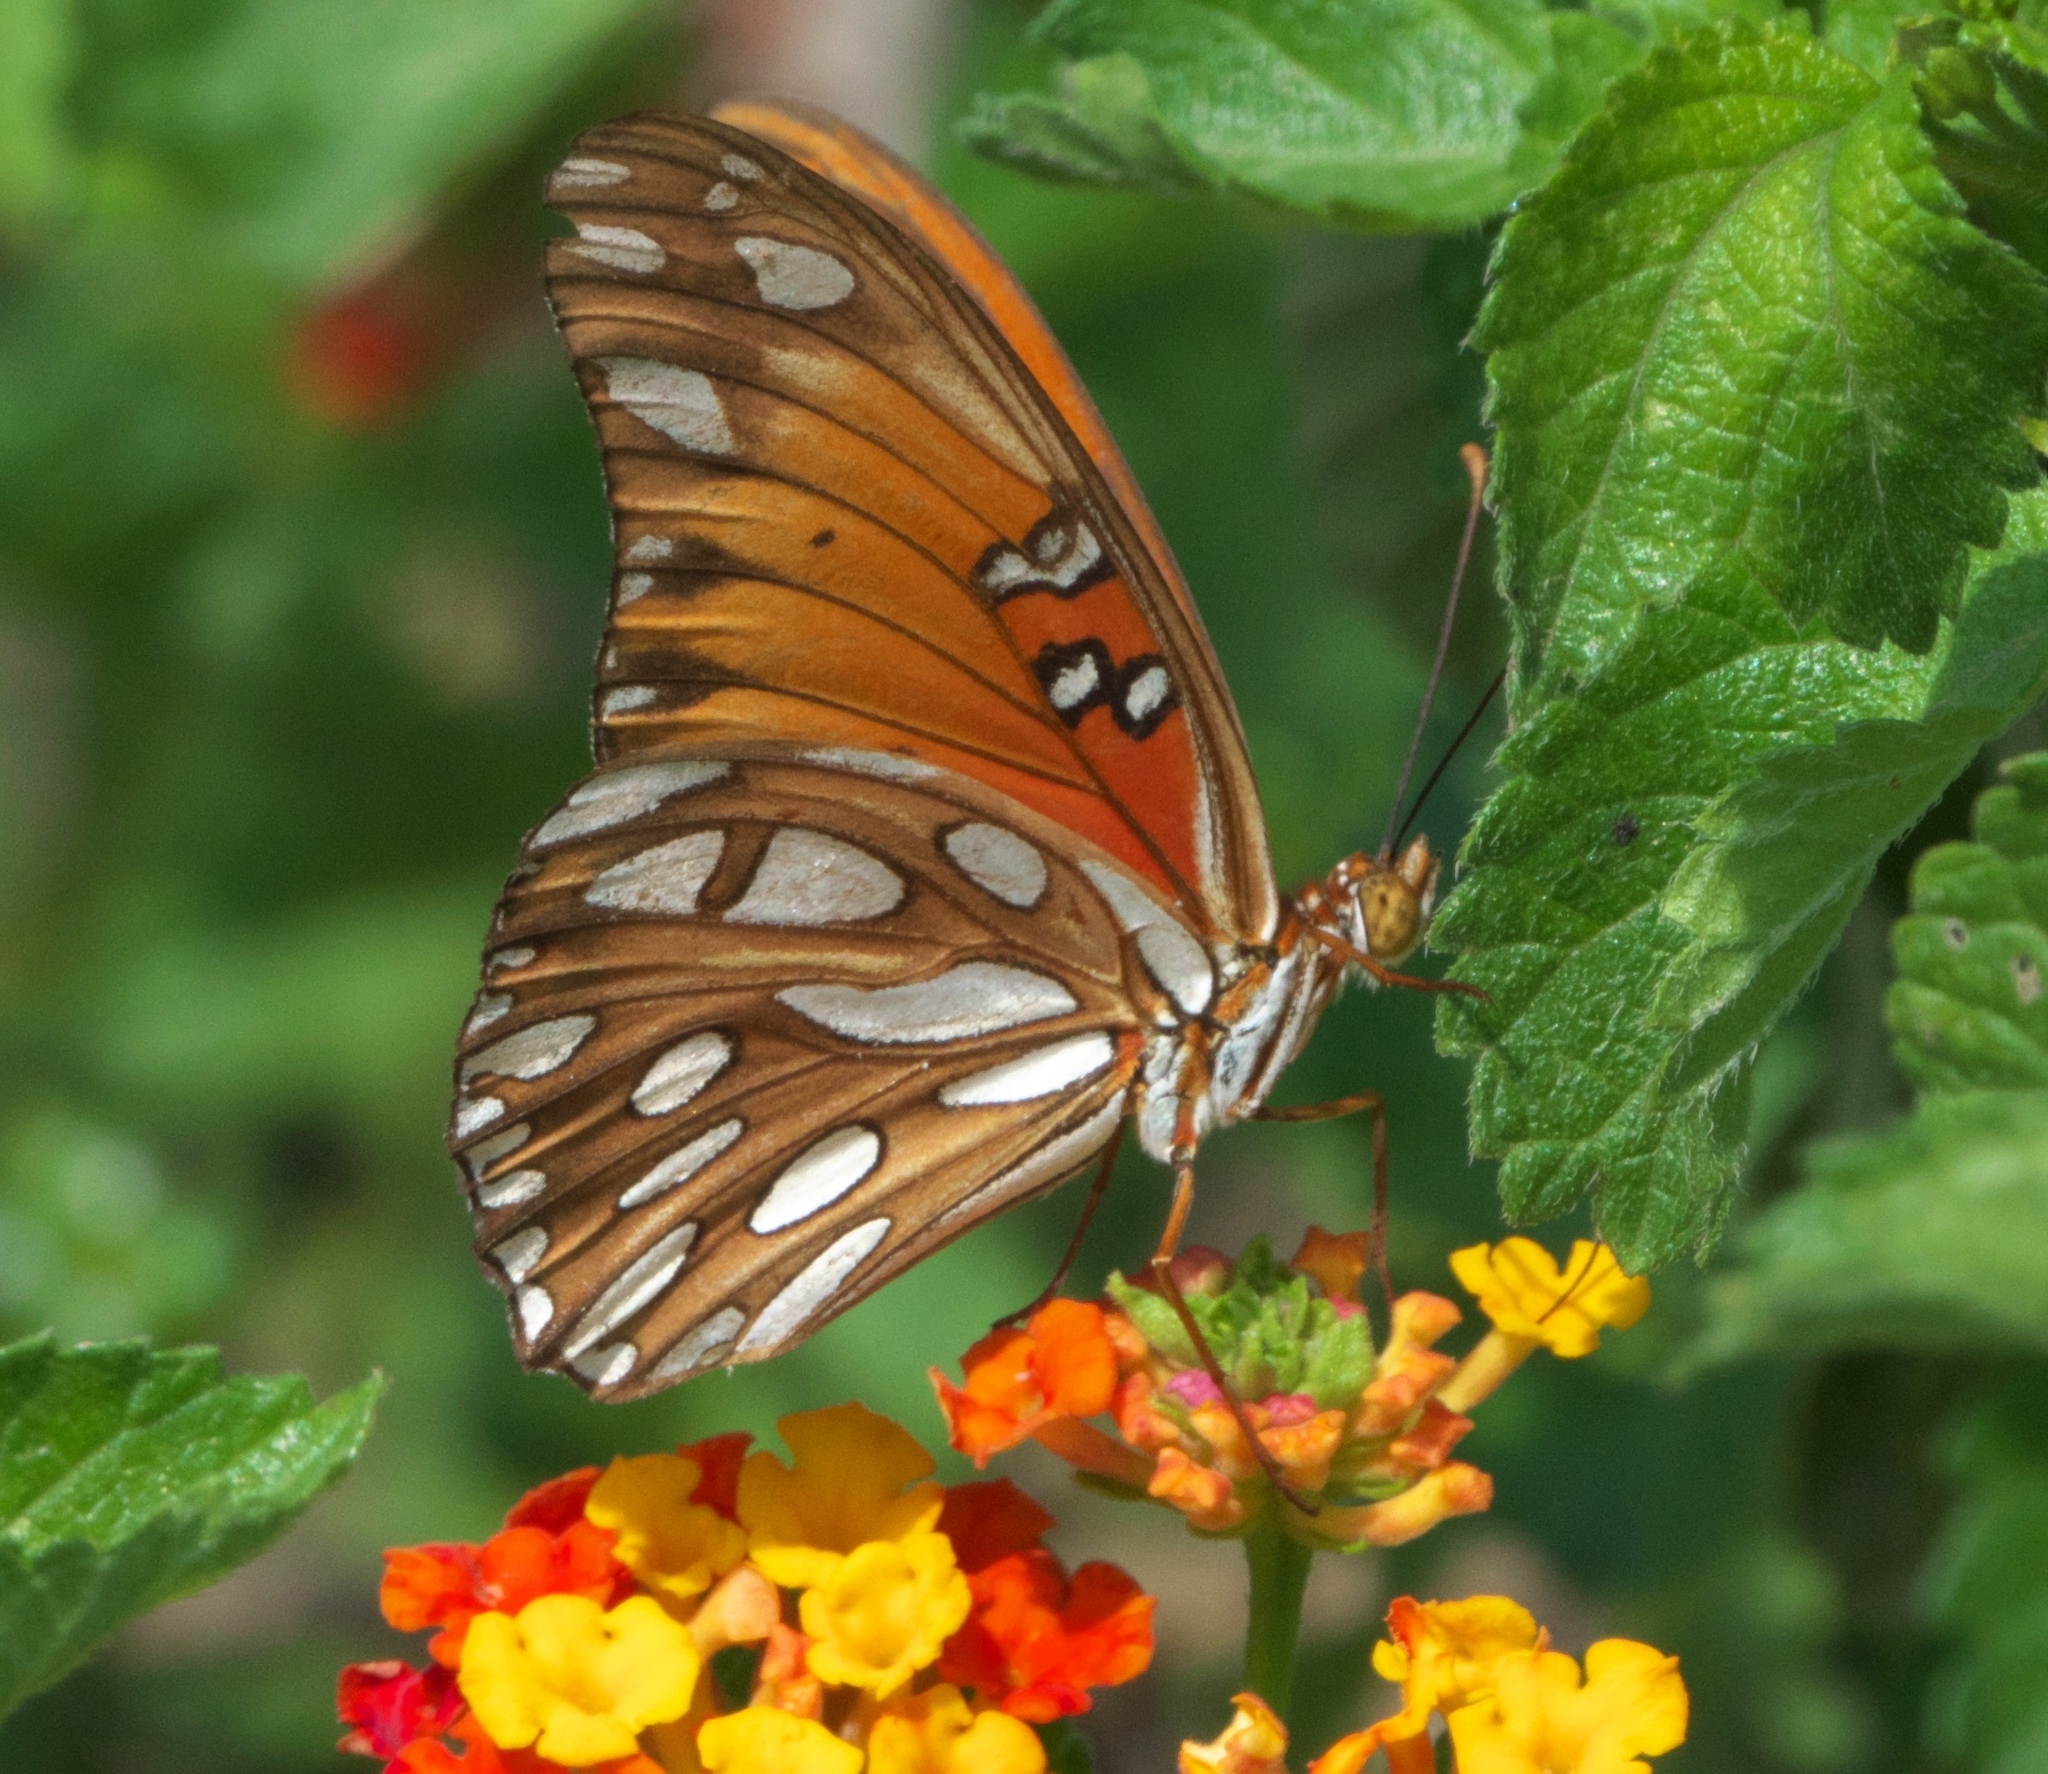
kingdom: Animalia
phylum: Arthropoda
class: Insecta
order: Lepidoptera
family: Nymphalidae
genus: Dione
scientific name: Dione vanillae
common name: Gulf fritillary
